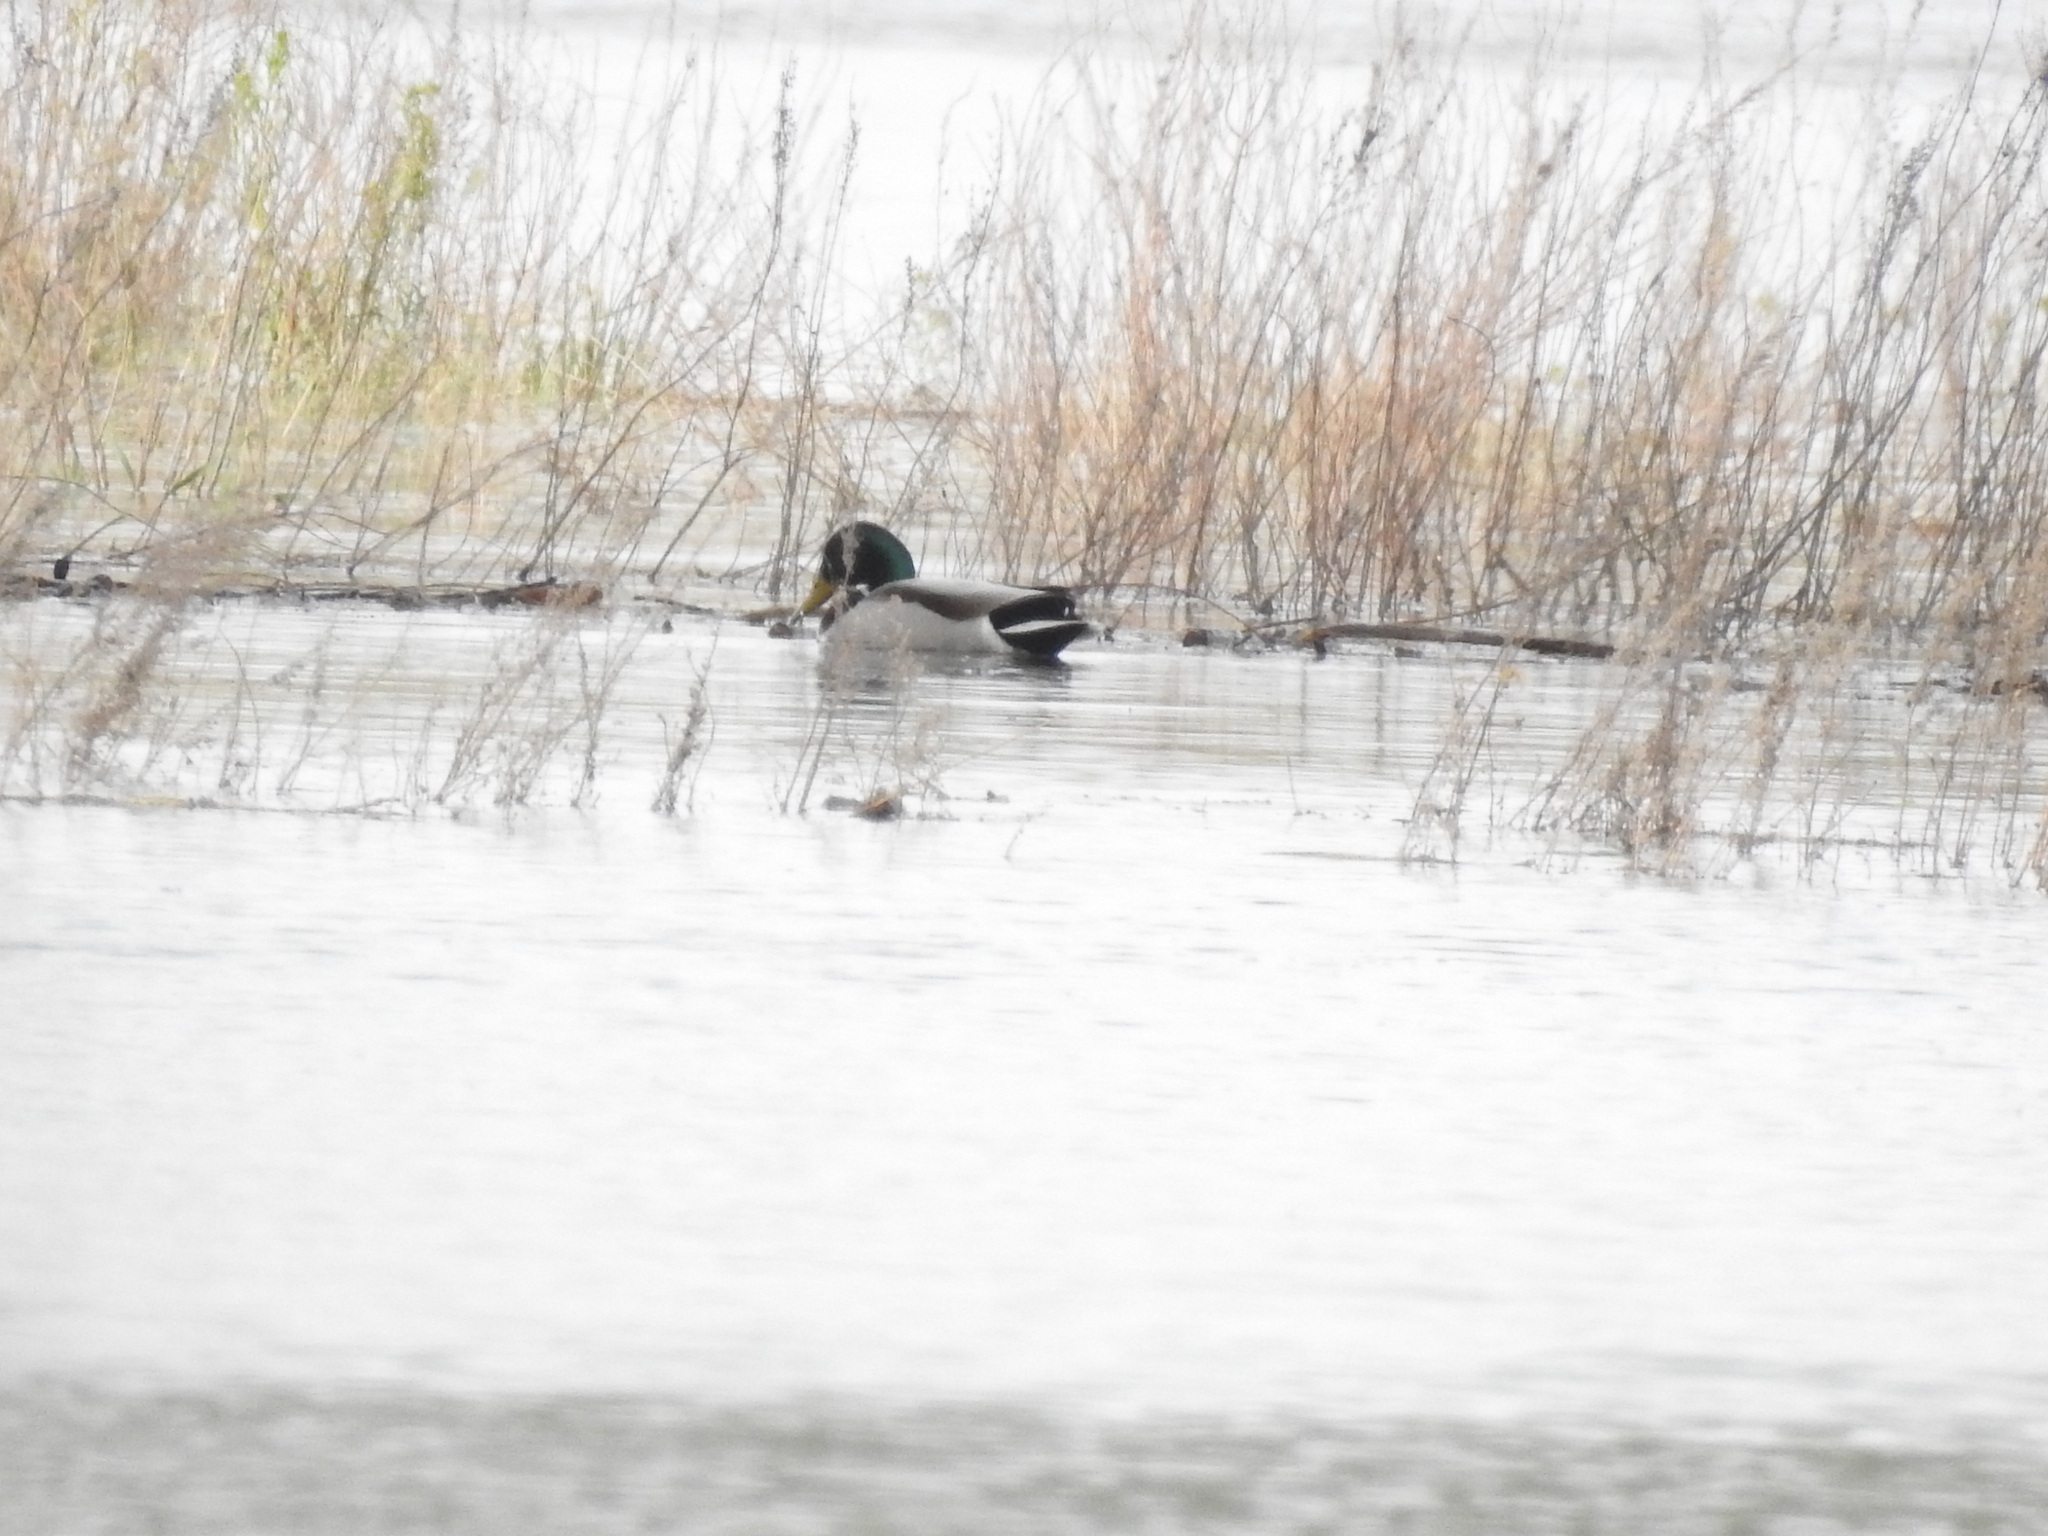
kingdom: Animalia
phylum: Chordata
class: Aves
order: Anseriformes
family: Anatidae
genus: Anas
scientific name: Anas platyrhynchos
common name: Mallard
